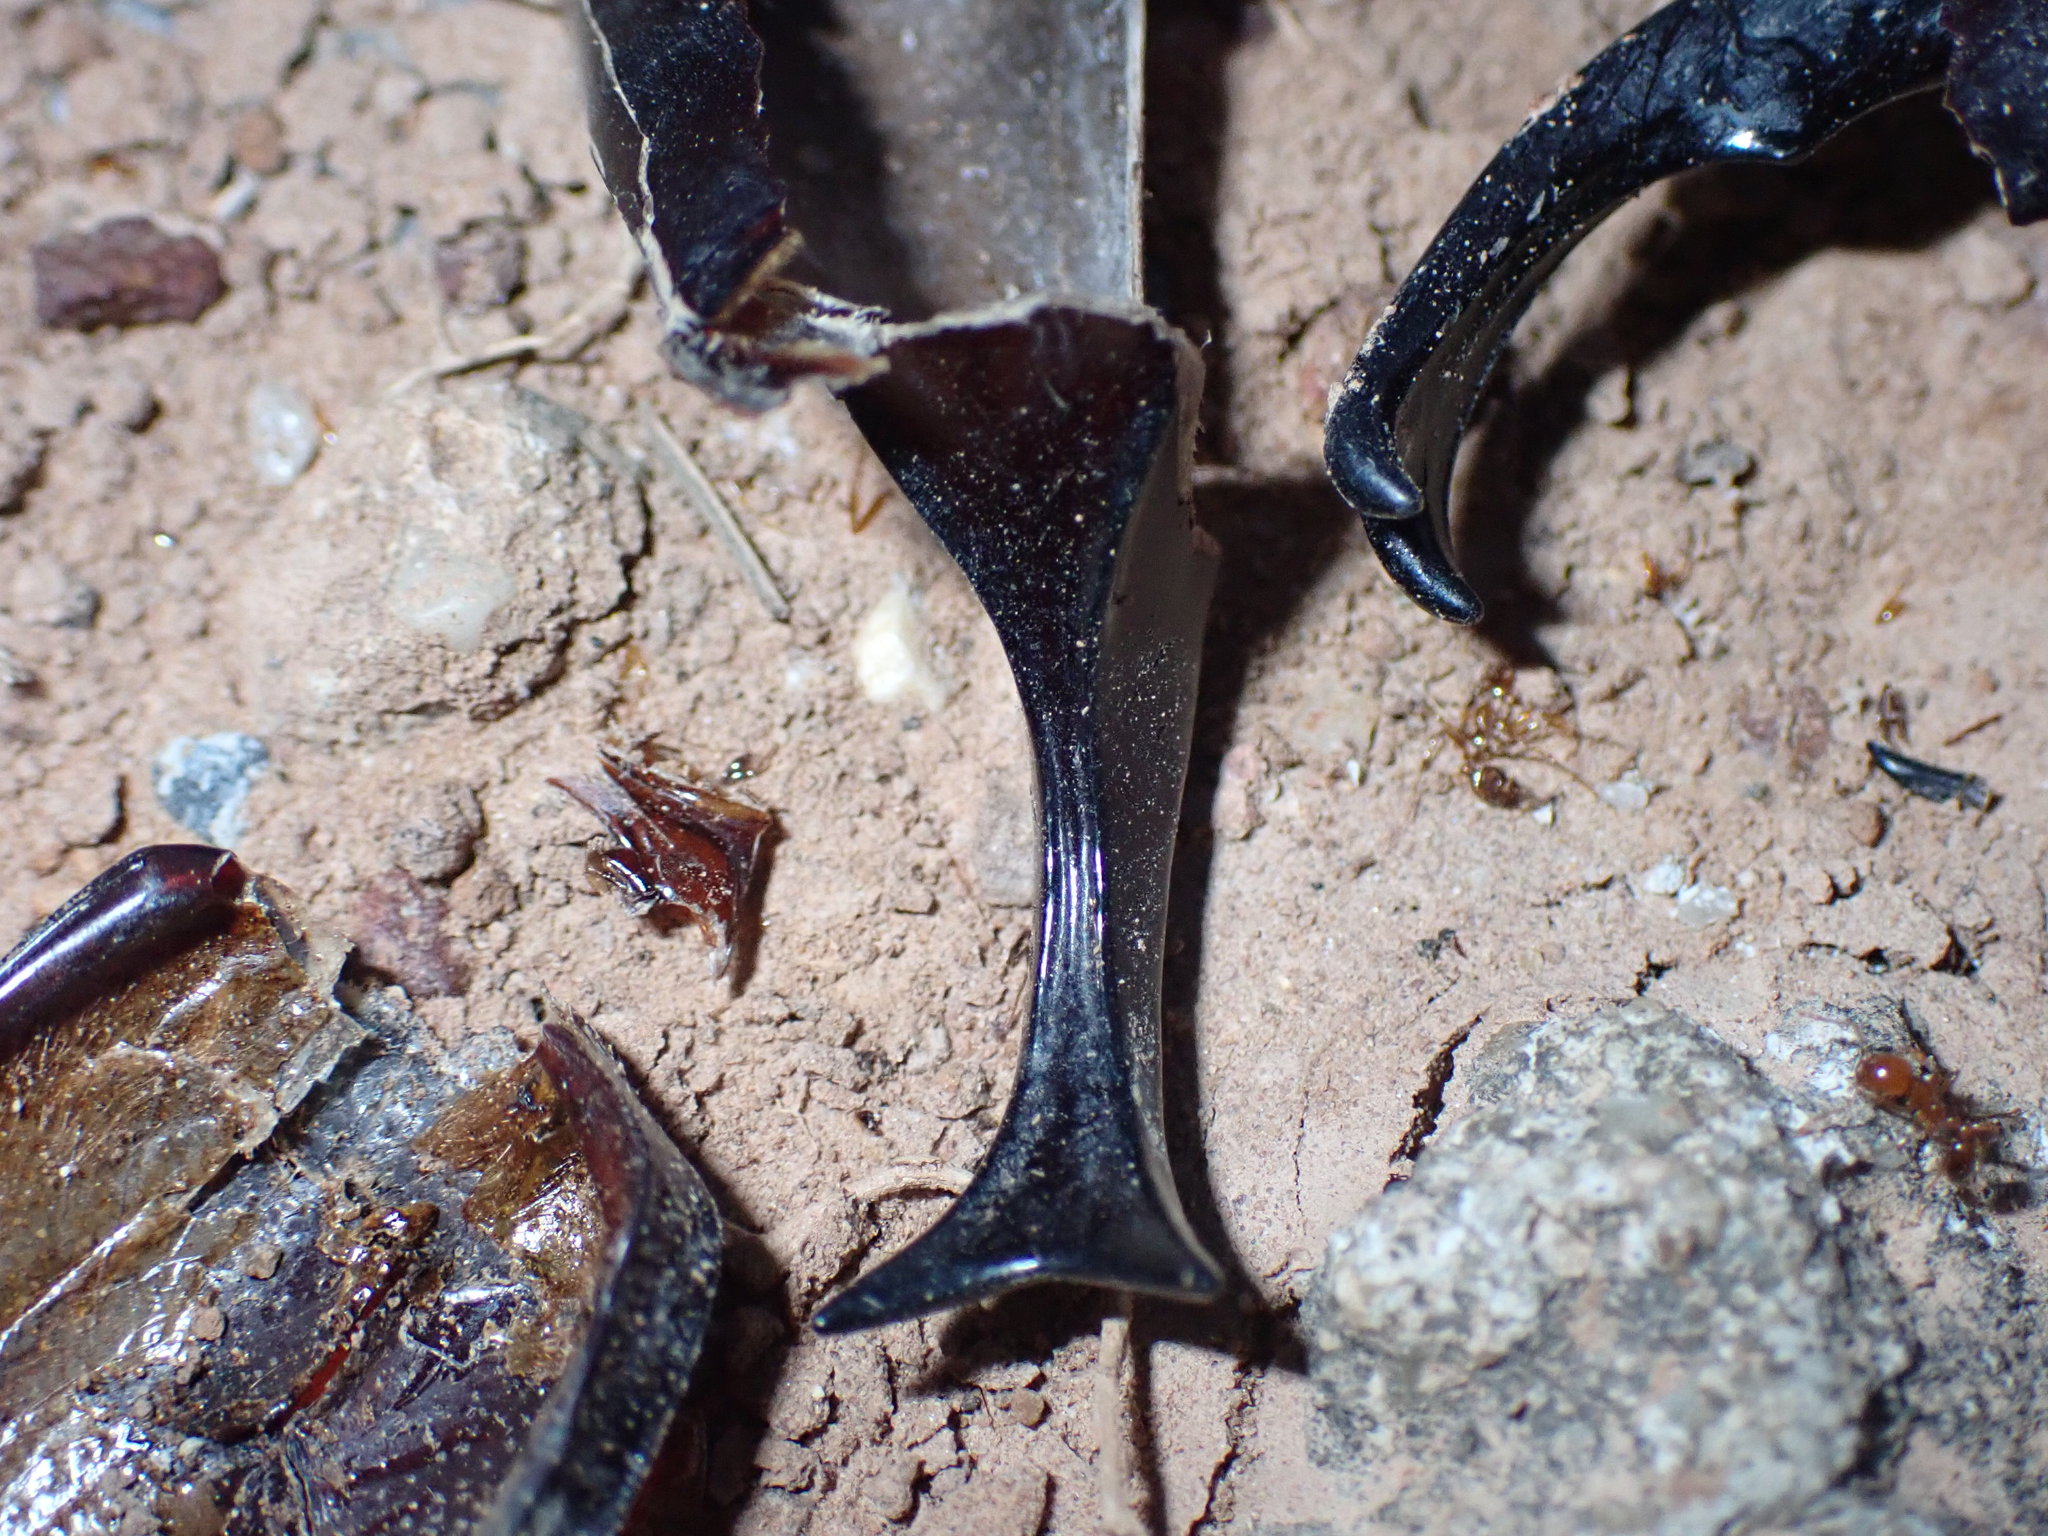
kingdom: Animalia
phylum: Arthropoda
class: Insecta
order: Coleoptera
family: Scarabaeidae
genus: Xylotrupes
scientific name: Xylotrupes socrates
